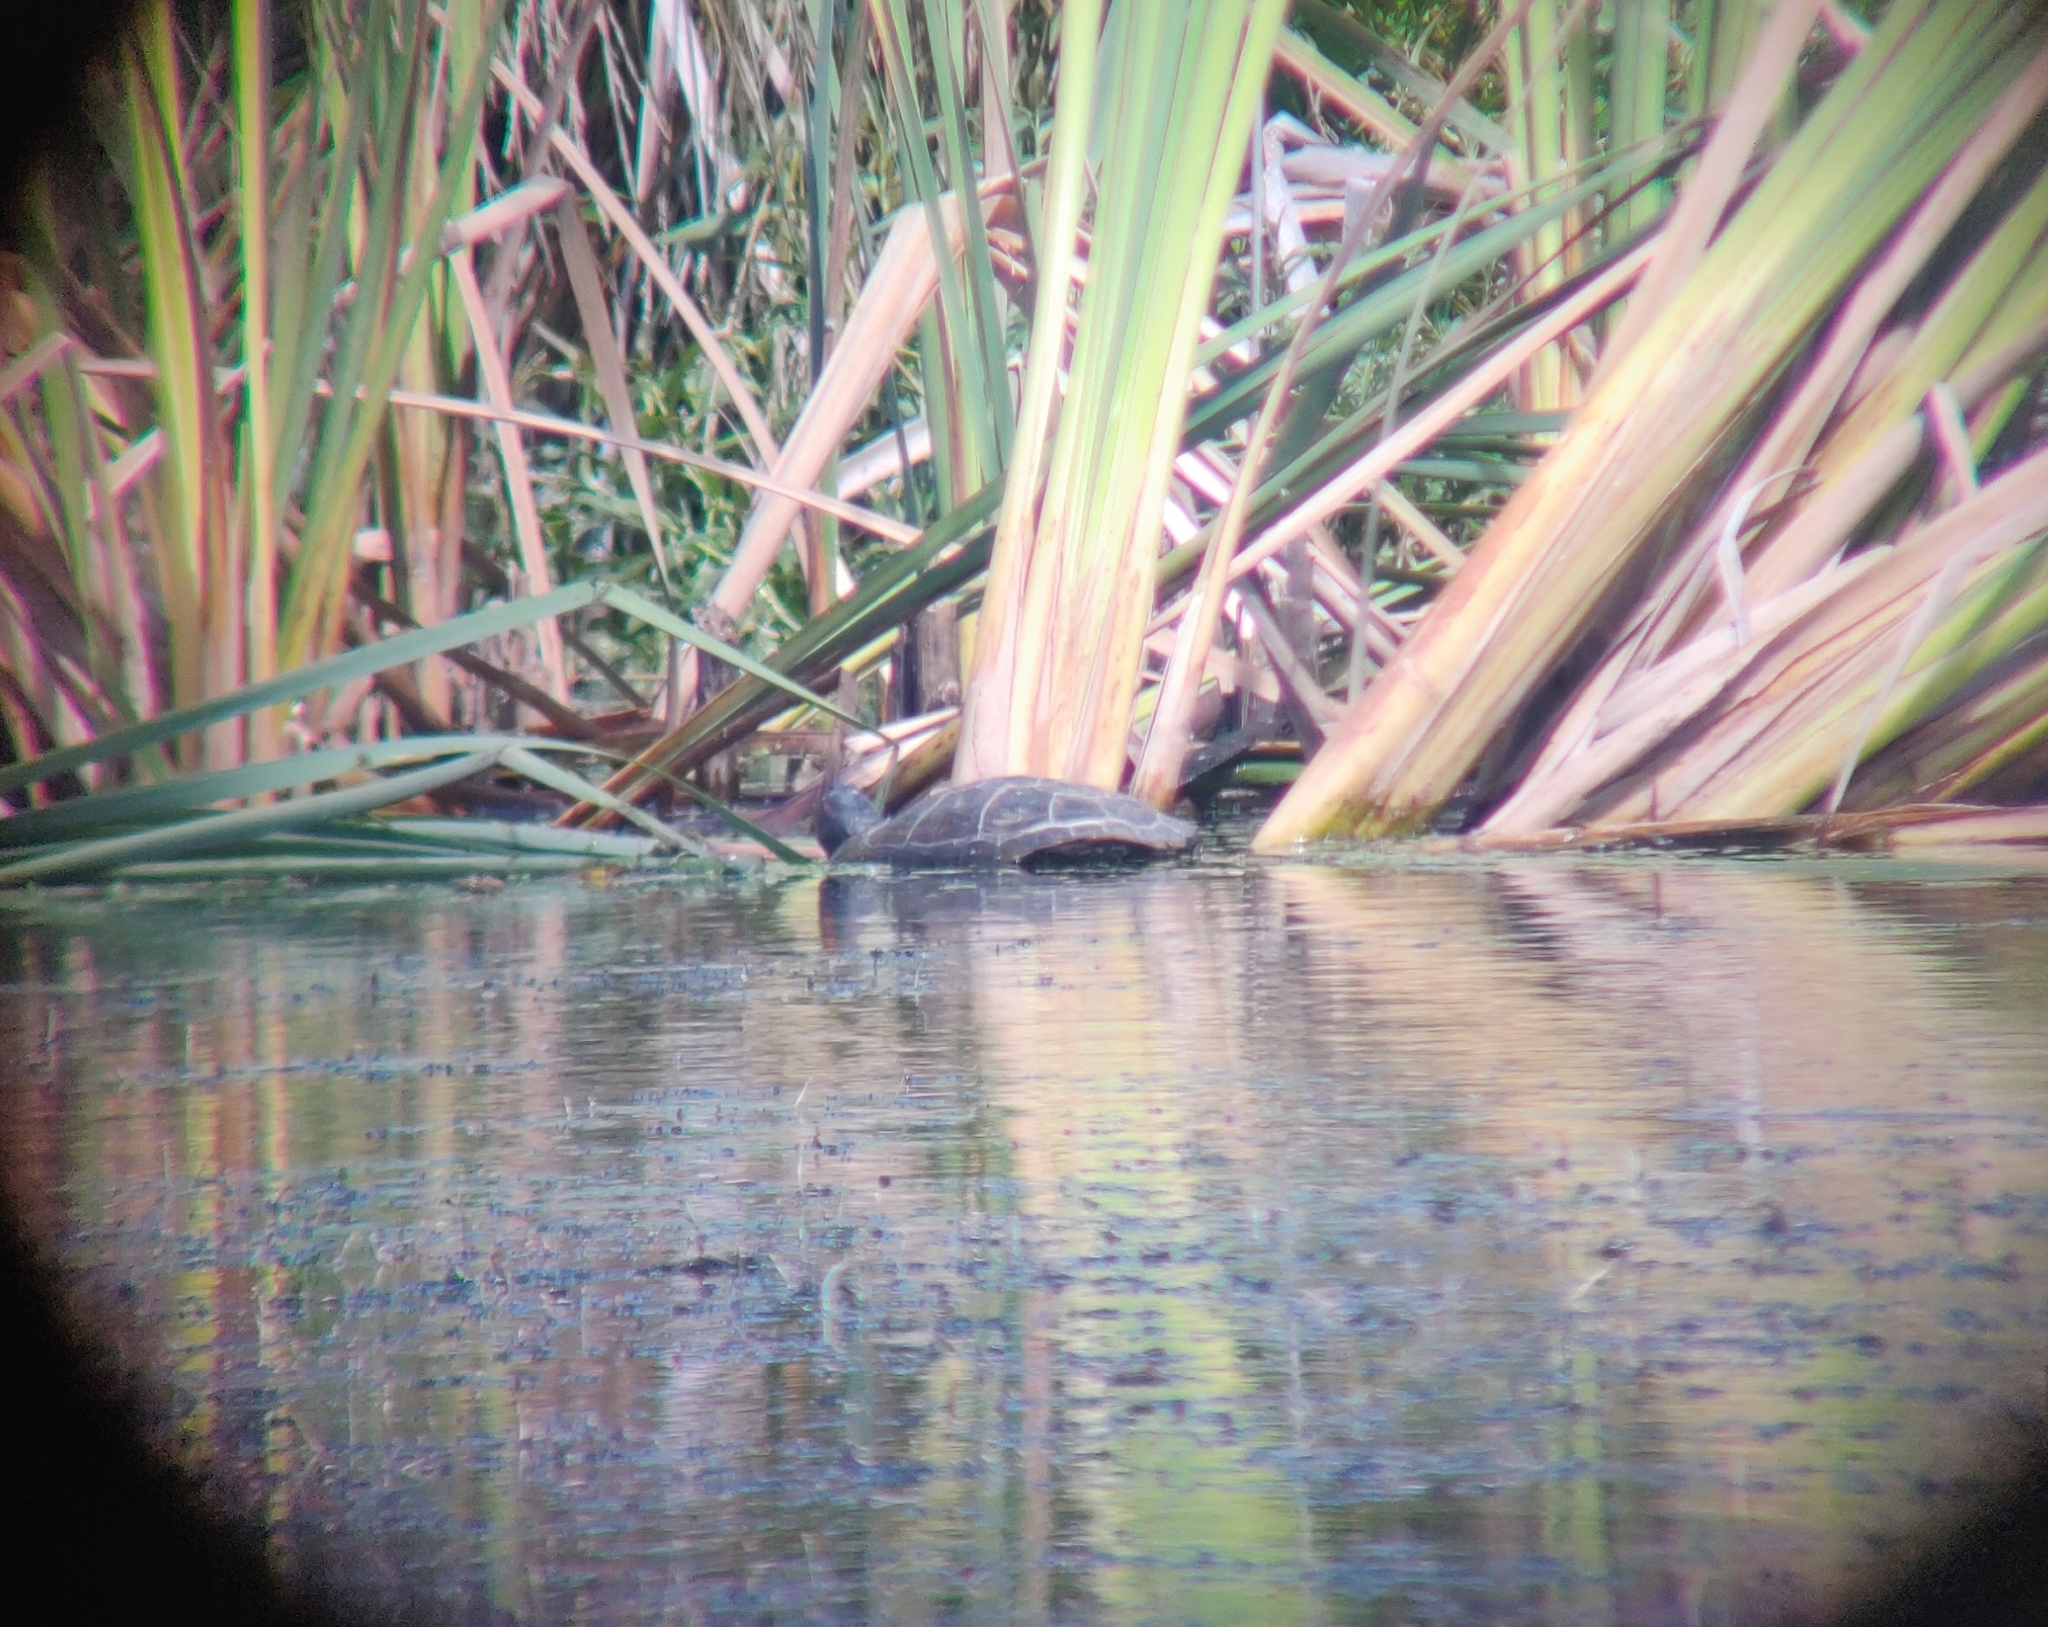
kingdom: Animalia
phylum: Chordata
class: Testudines
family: Emydidae
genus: Trachemys
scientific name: Trachemys scripta
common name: Slider
